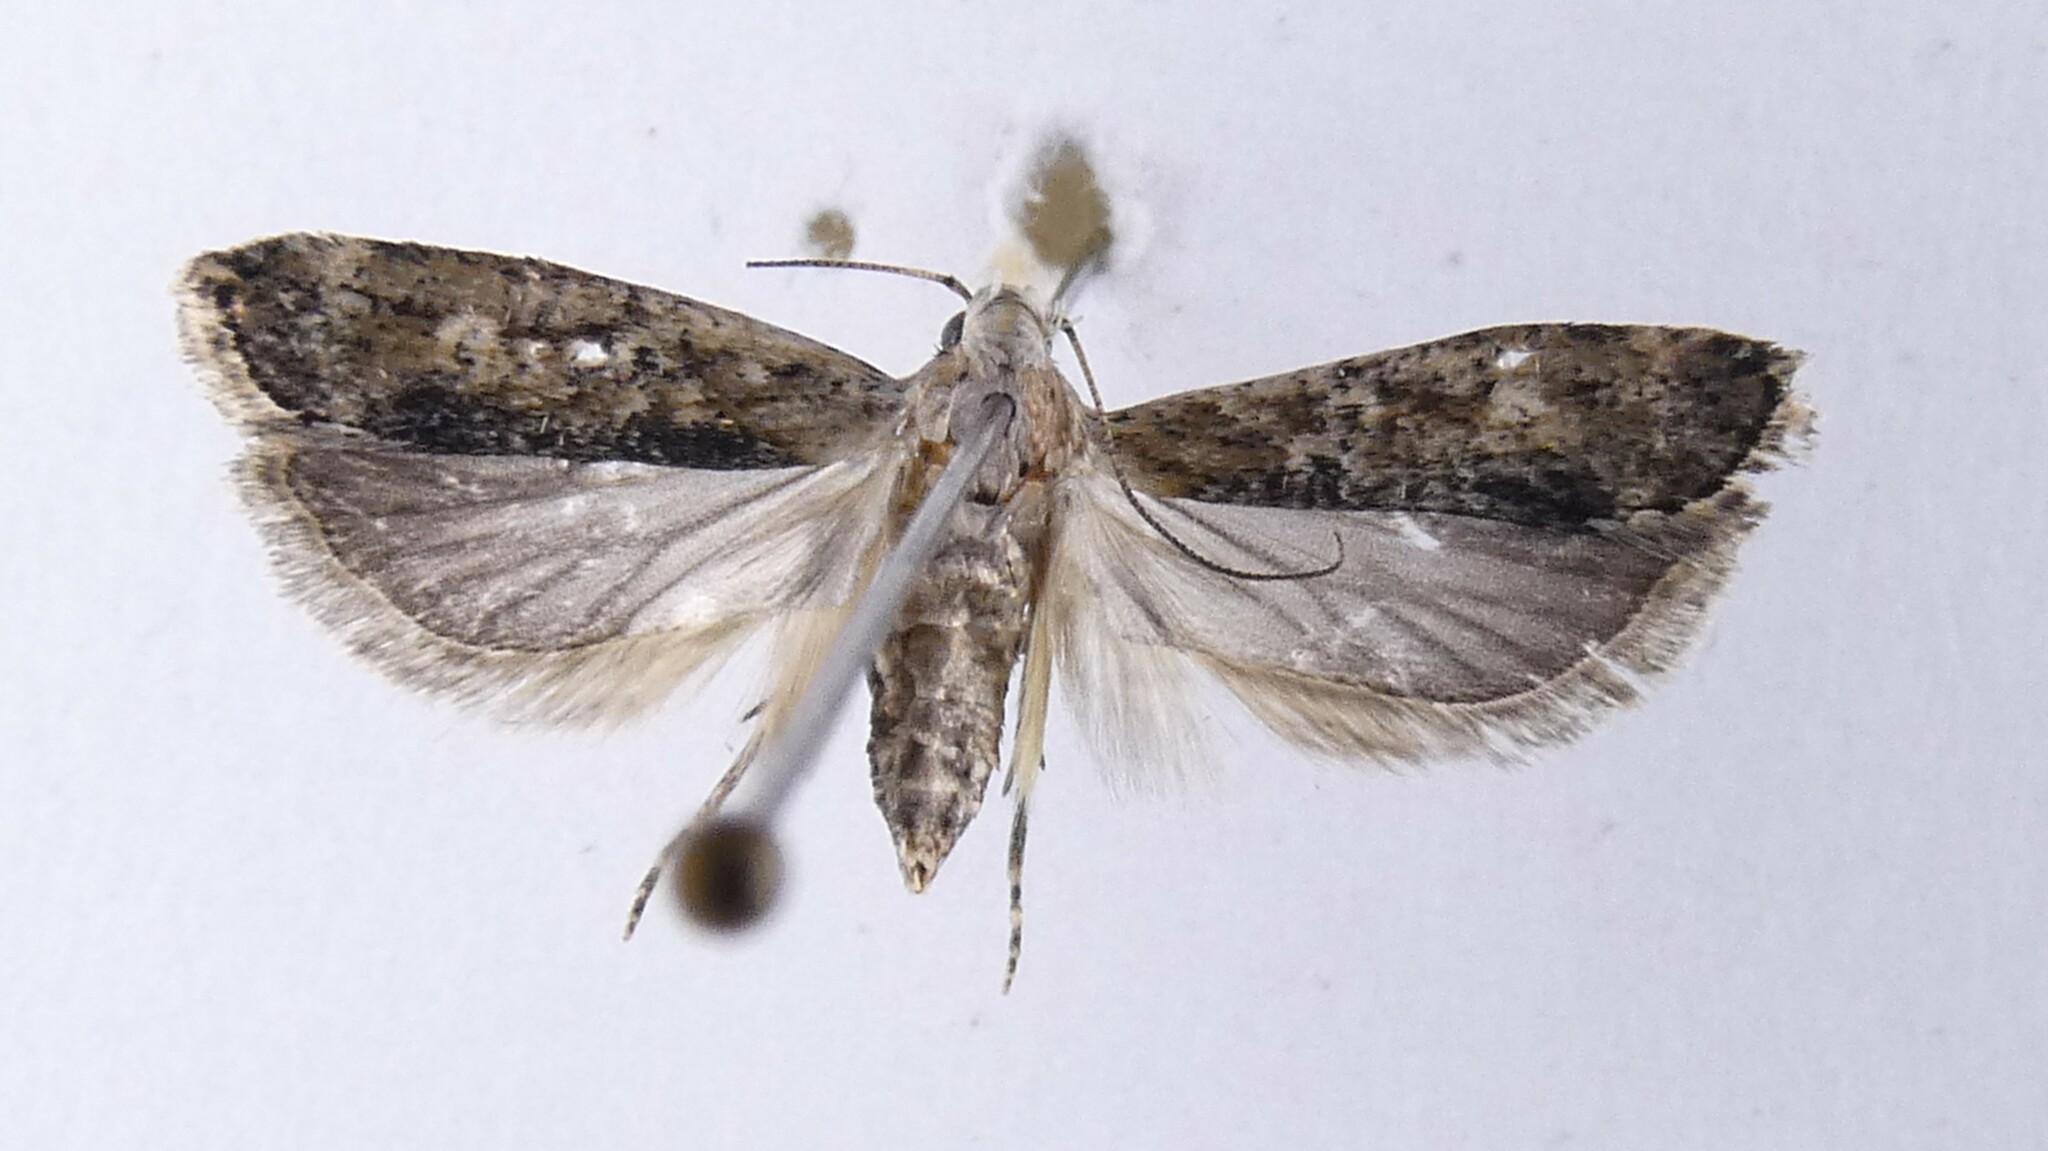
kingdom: Animalia
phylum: Arthropoda
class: Insecta
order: Lepidoptera
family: Gelechiidae
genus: Anisoplaca
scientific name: Anisoplaca achyrota
